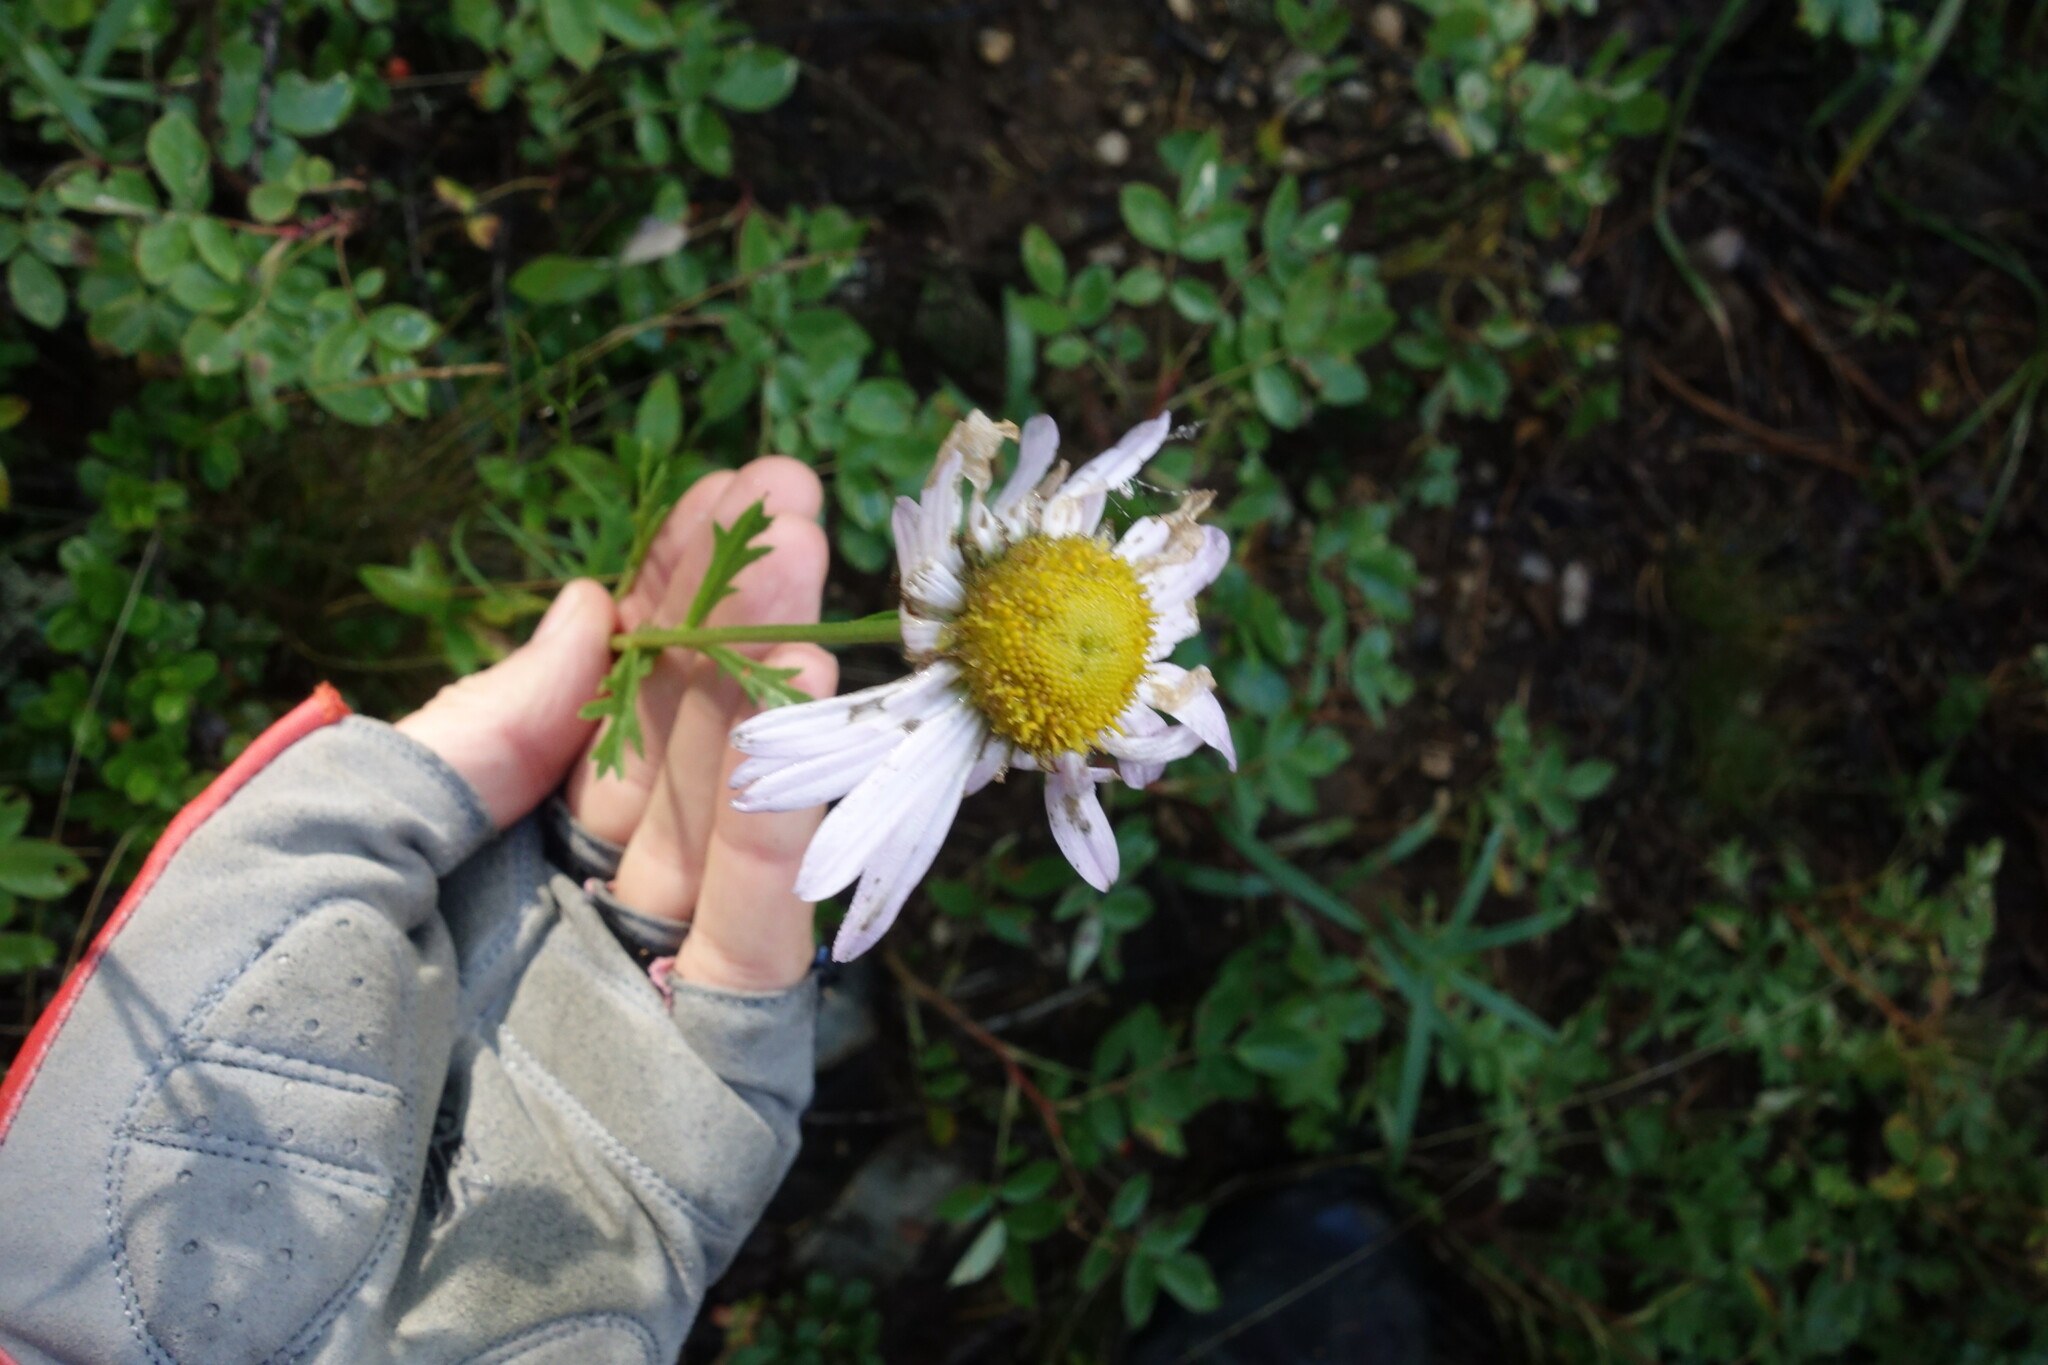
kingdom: Plantae
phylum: Tracheophyta
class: Magnoliopsida
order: Asterales
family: Asteraceae
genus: Chrysanthemum
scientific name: Chrysanthemum zawadzkii
